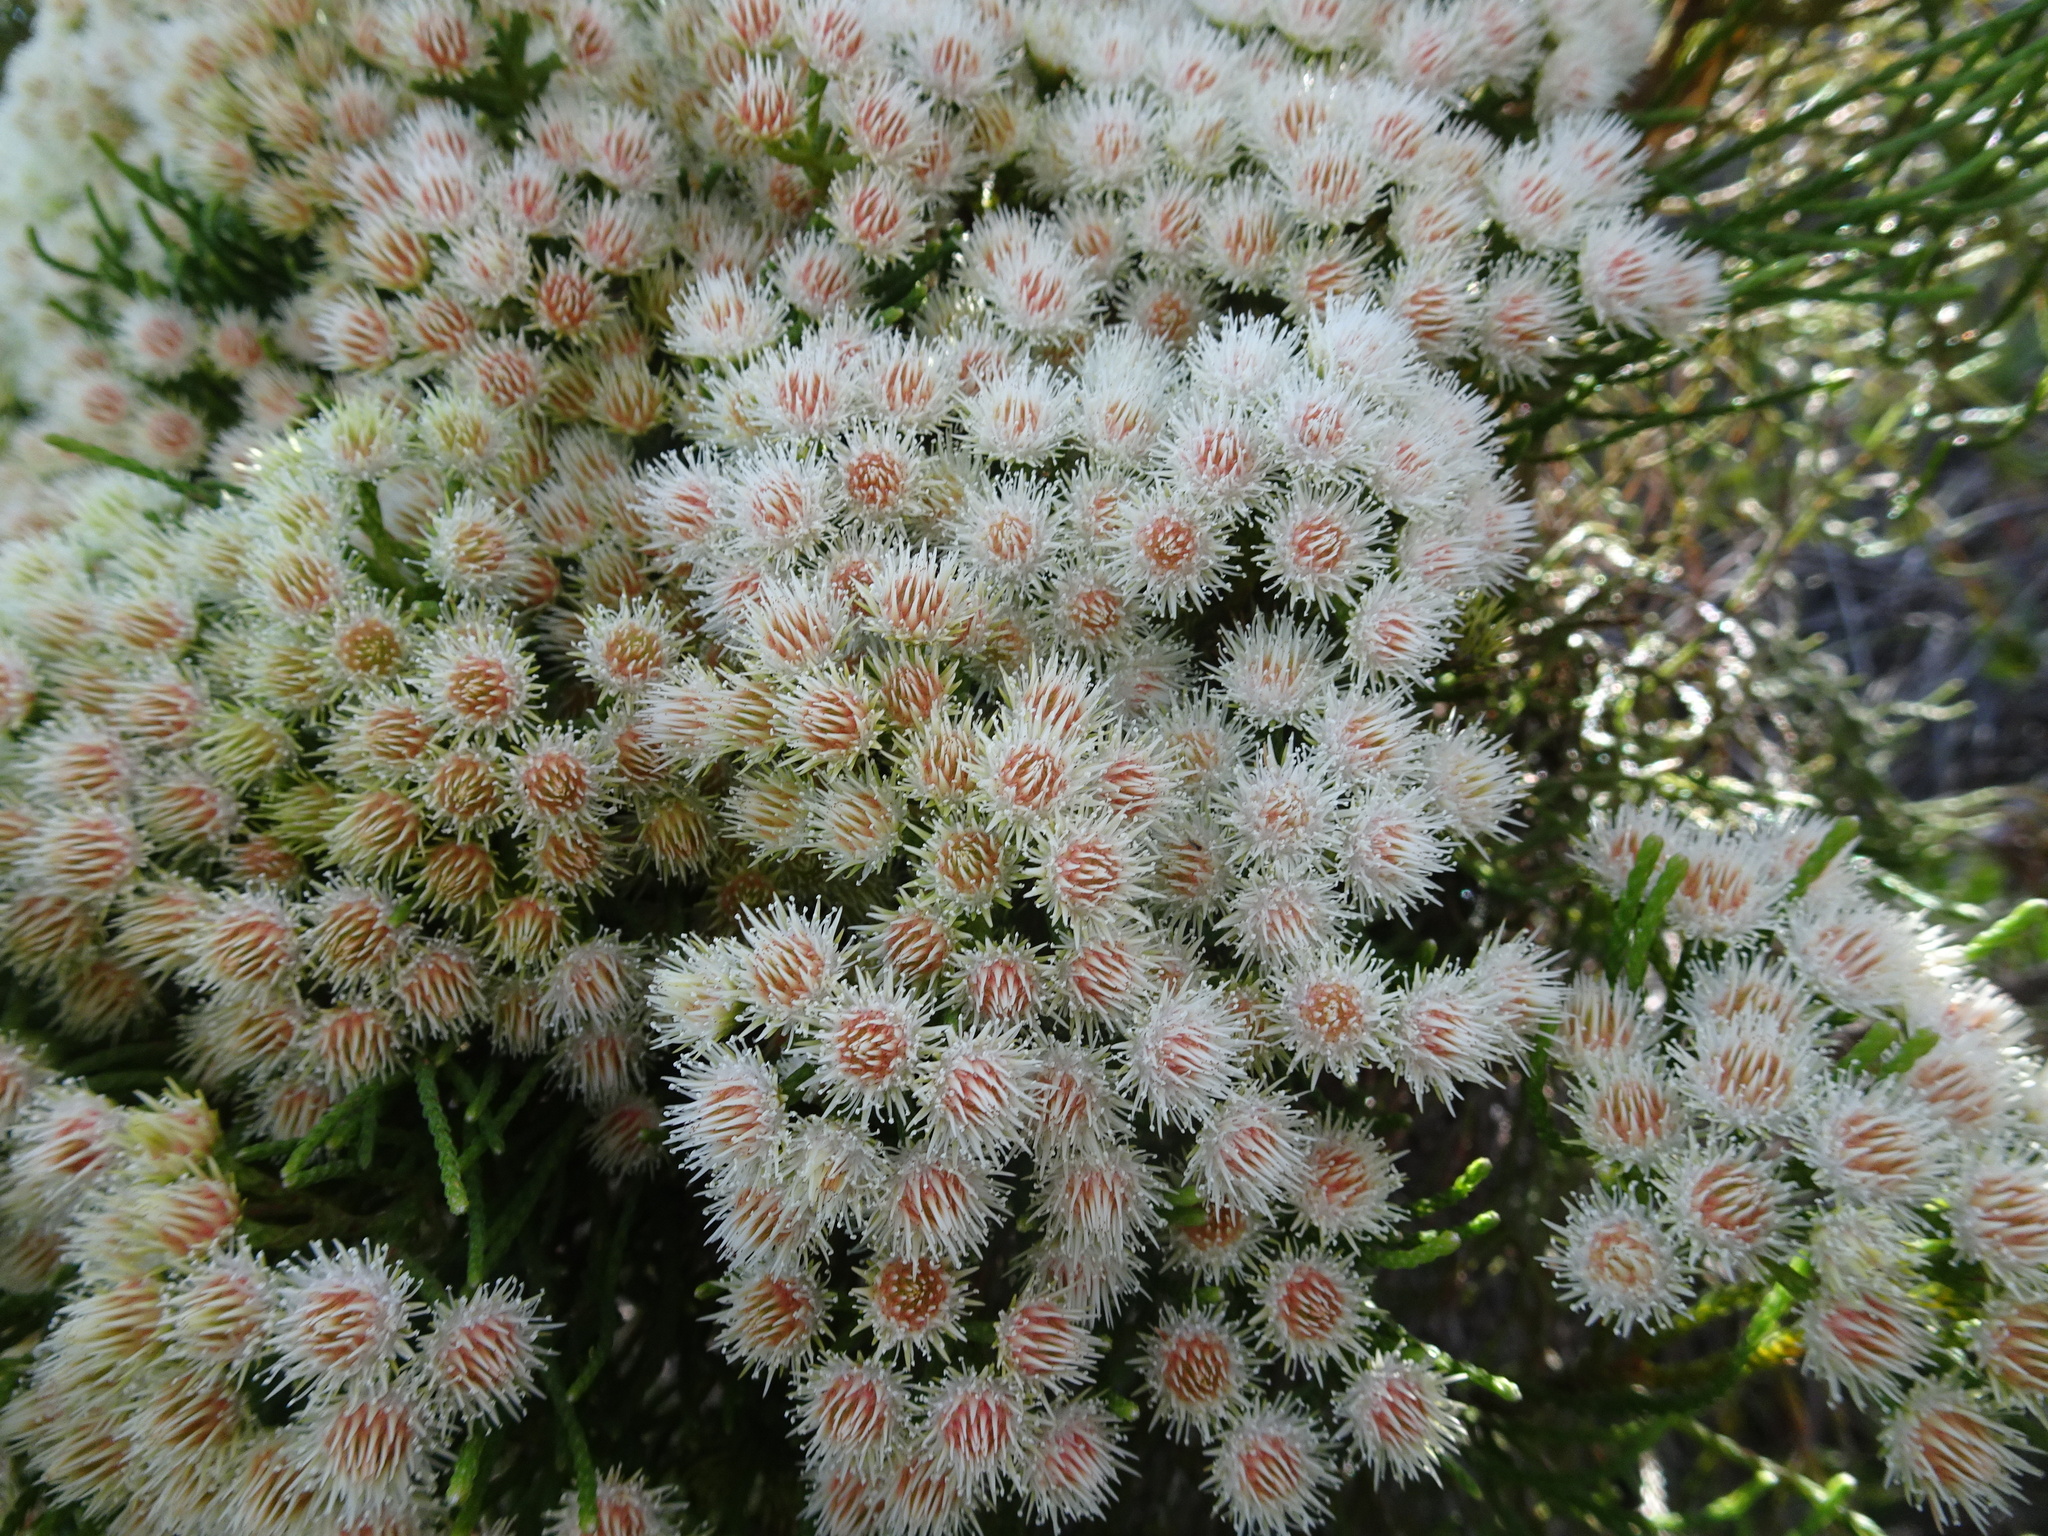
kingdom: Plantae
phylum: Tracheophyta
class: Magnoliopsida
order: Bruniales
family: Bruniaceae
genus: Brunia
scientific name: Brunia paleacea
